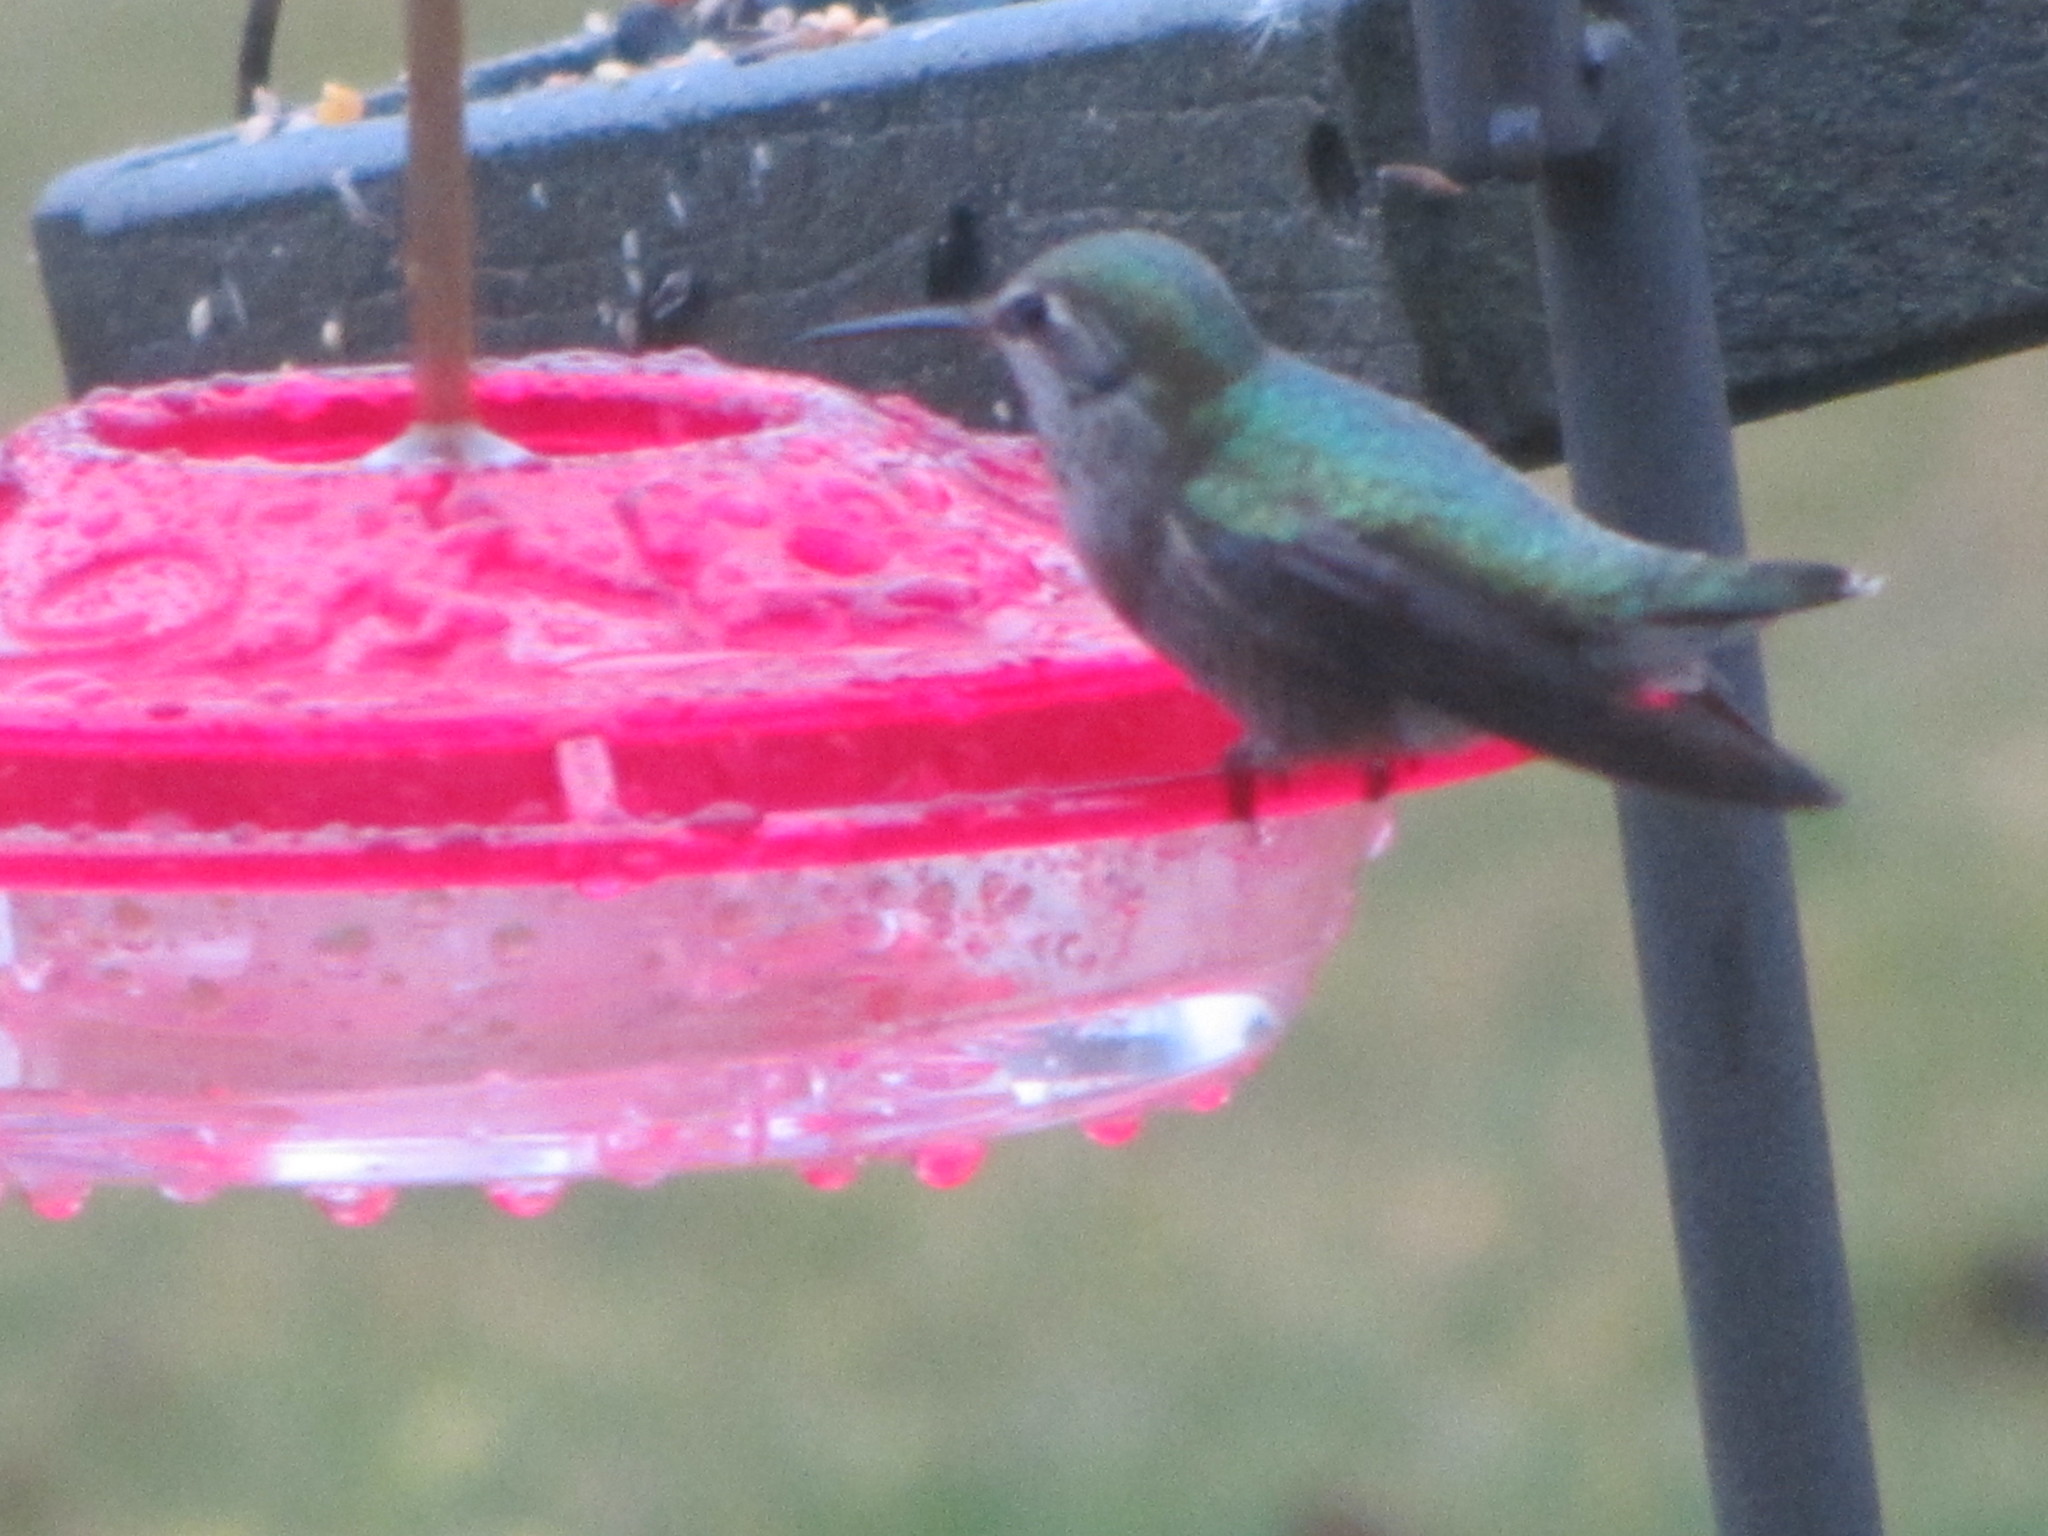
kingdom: Animalia
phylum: Chordata
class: Aves
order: Apodiformes
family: Trochilidae
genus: Calypte
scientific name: Calypte anna
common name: Anna's hummingbird
